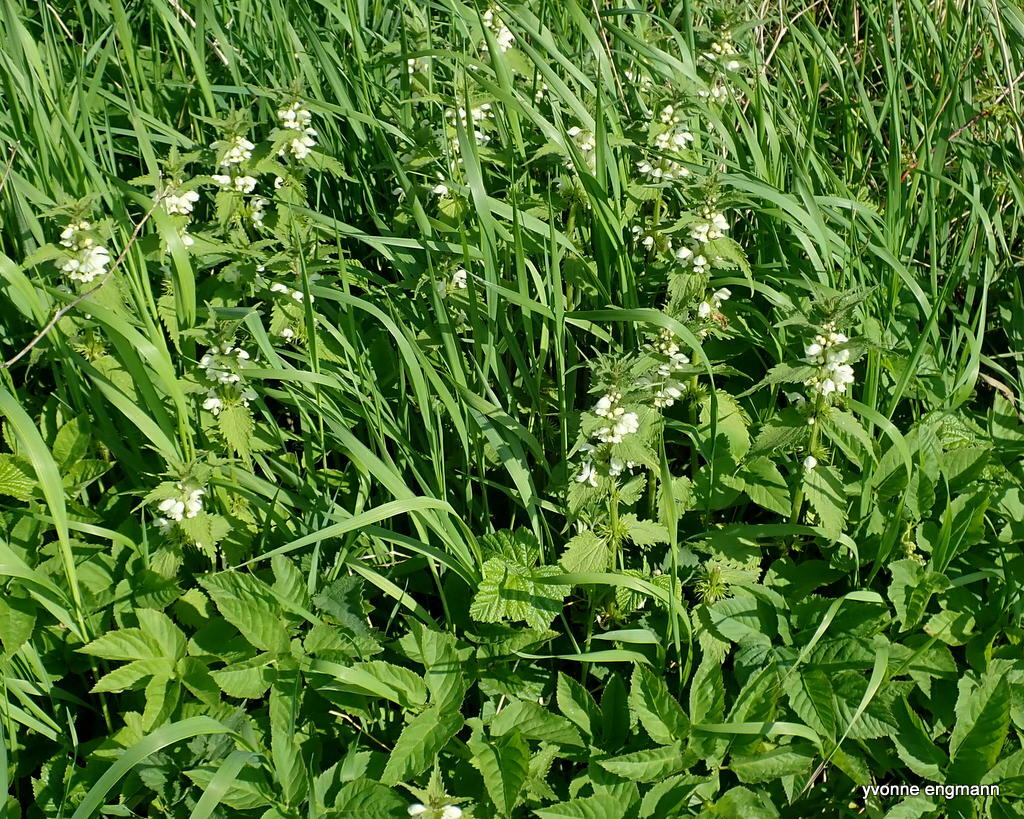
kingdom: Plantae
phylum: Tracheophyta
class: Magnoliopsida
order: Lamiales
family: Lamiaceae
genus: Lamium
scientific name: Lamium album
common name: White dead-nettle
